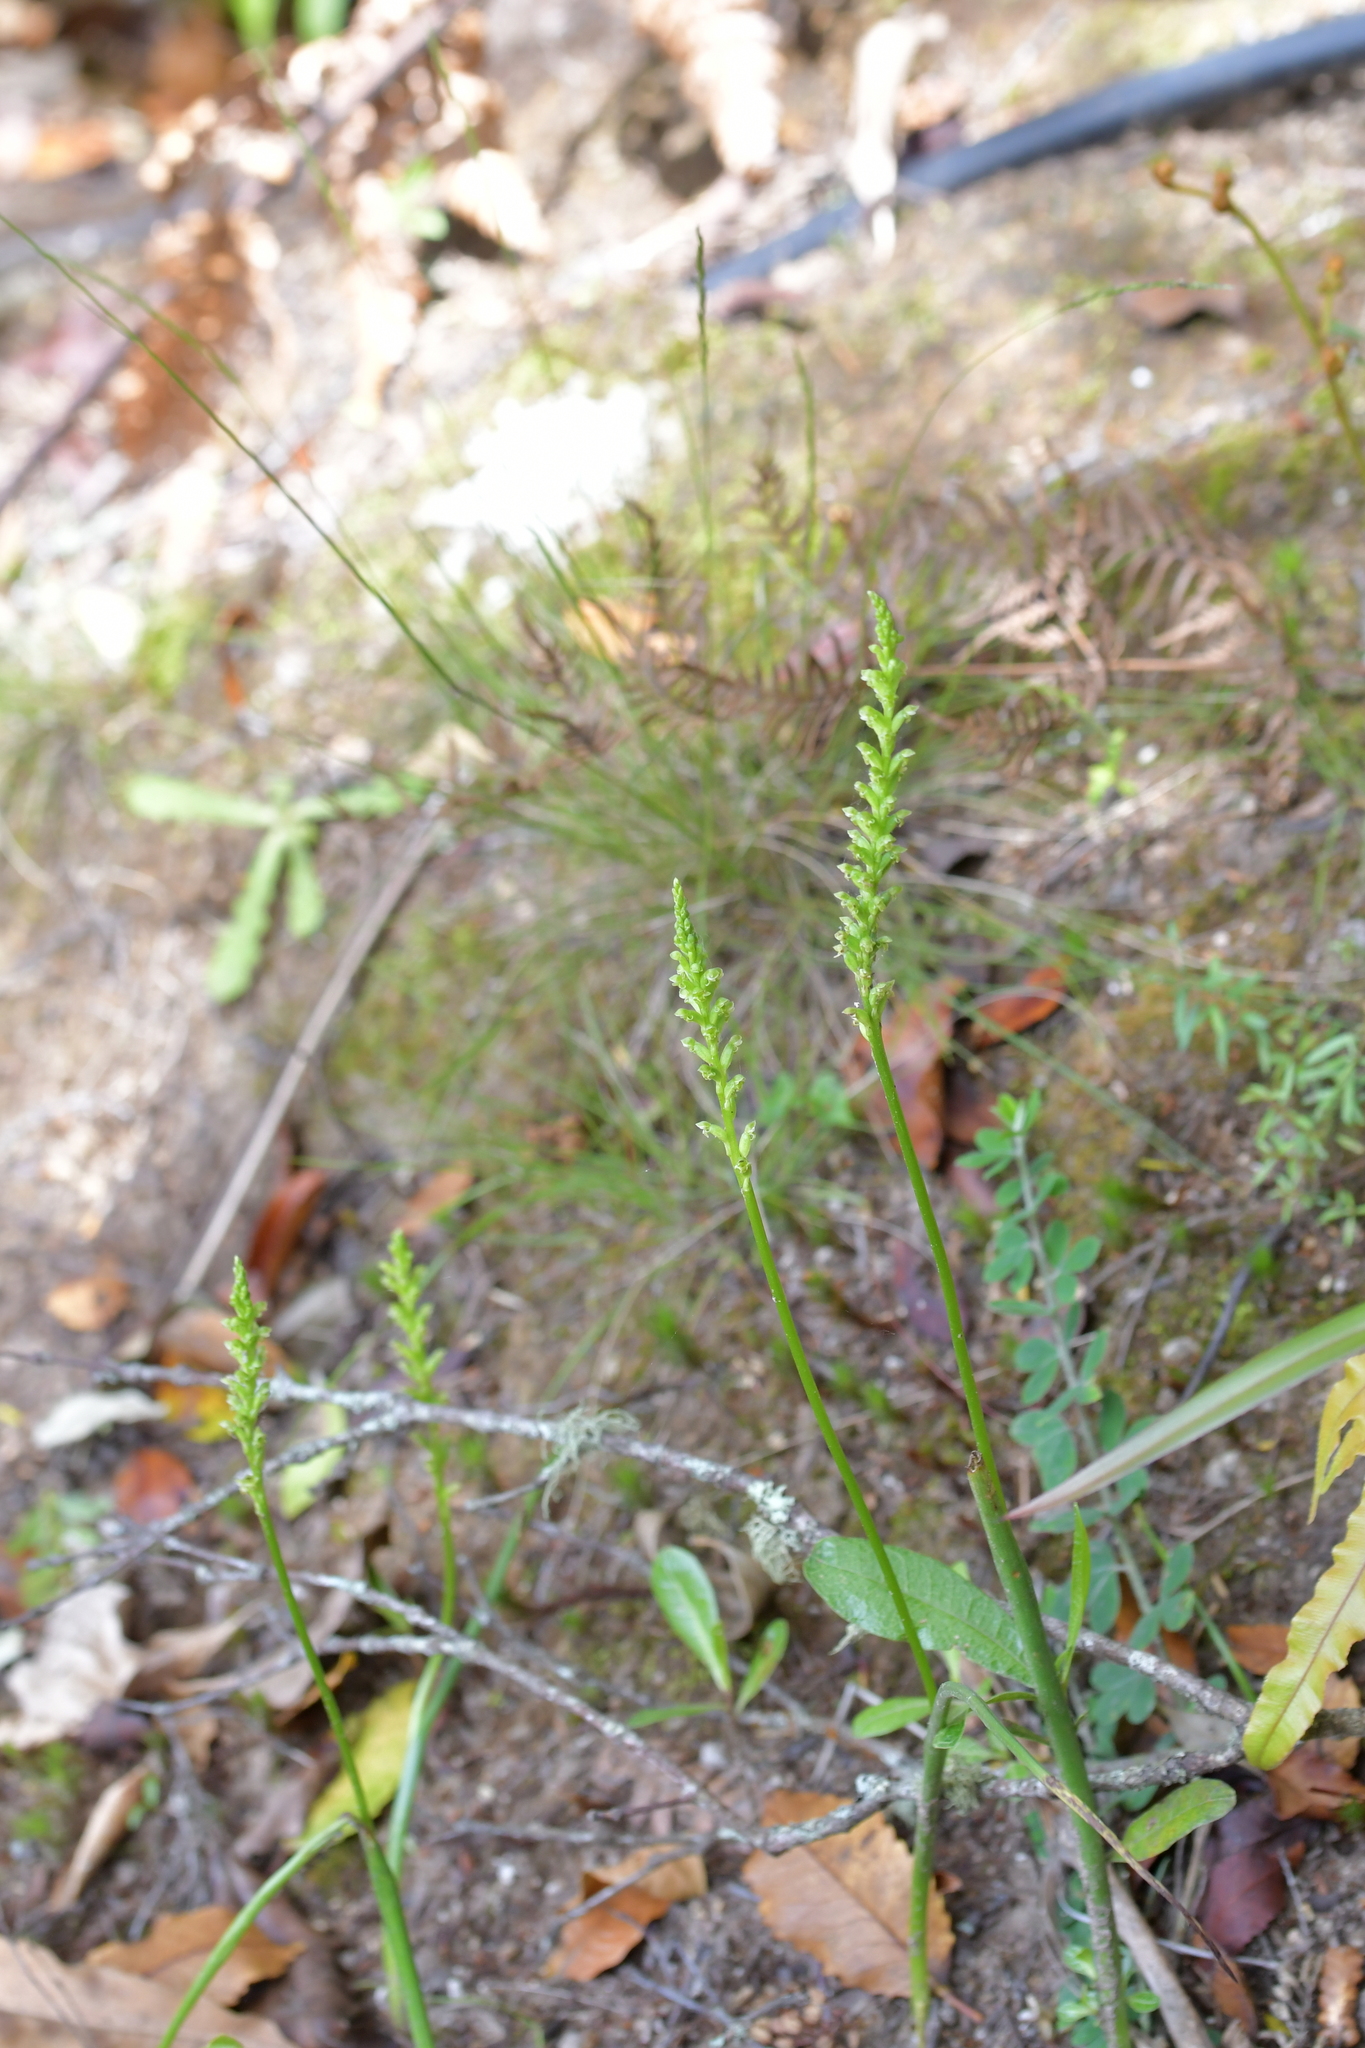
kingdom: Plantae
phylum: Tracheophyta
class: Liliopsida
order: Asparagales
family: Orchidaceae
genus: Microtis
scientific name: Microtis unifolia
